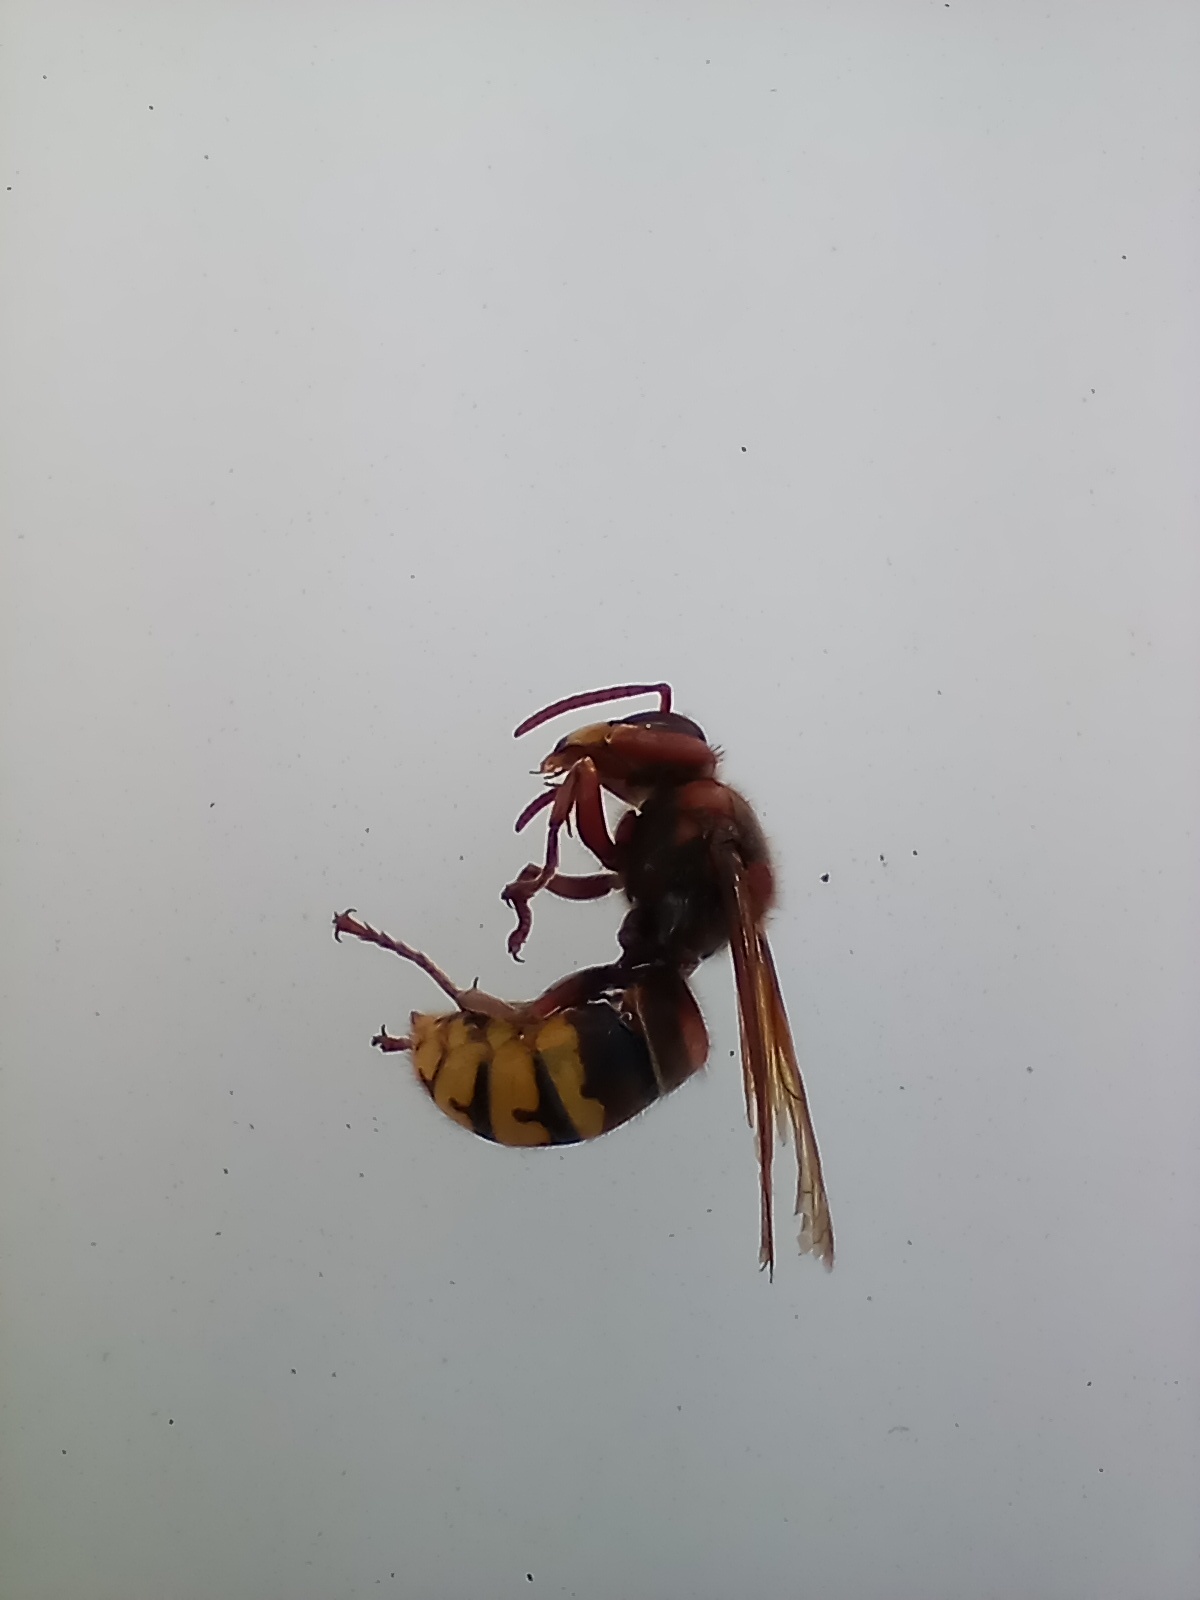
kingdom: Animalia
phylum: Arthropoda
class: Insecta
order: Hymenoptera
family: Vespidae
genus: Vespa
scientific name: Vespa crabro
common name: Hornet
